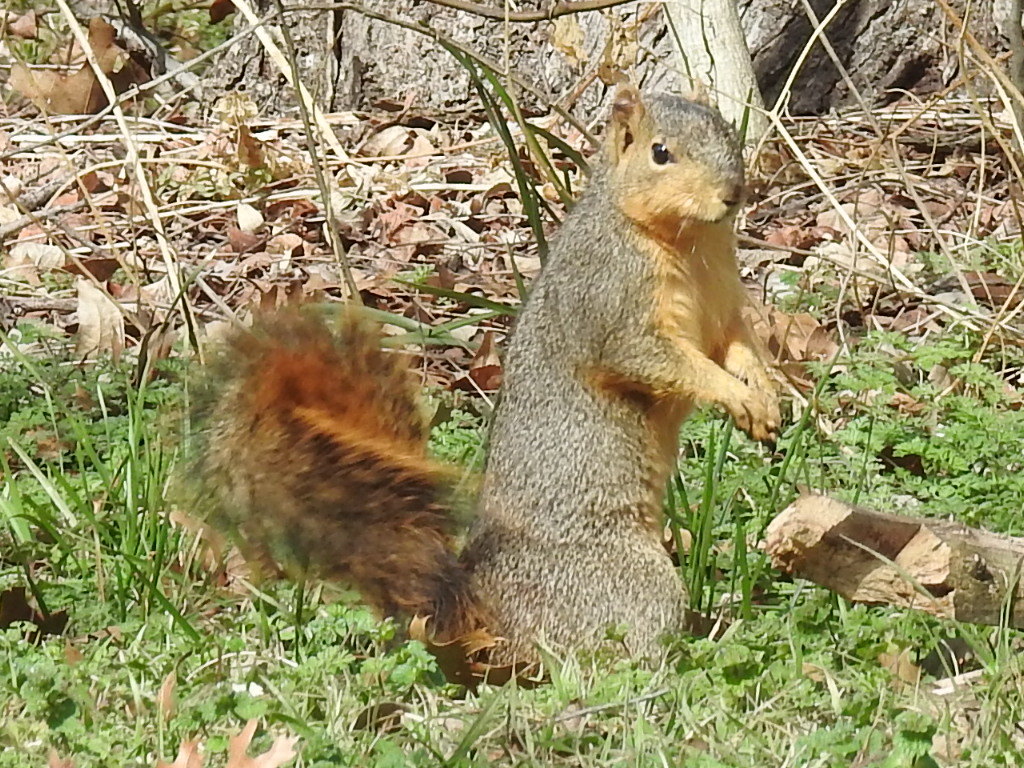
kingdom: Animalia
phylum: Chordata
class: Mammalia
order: Rodentia
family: Sciuridae
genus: Sciurus
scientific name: Sciurus niger
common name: Fox squirrel
